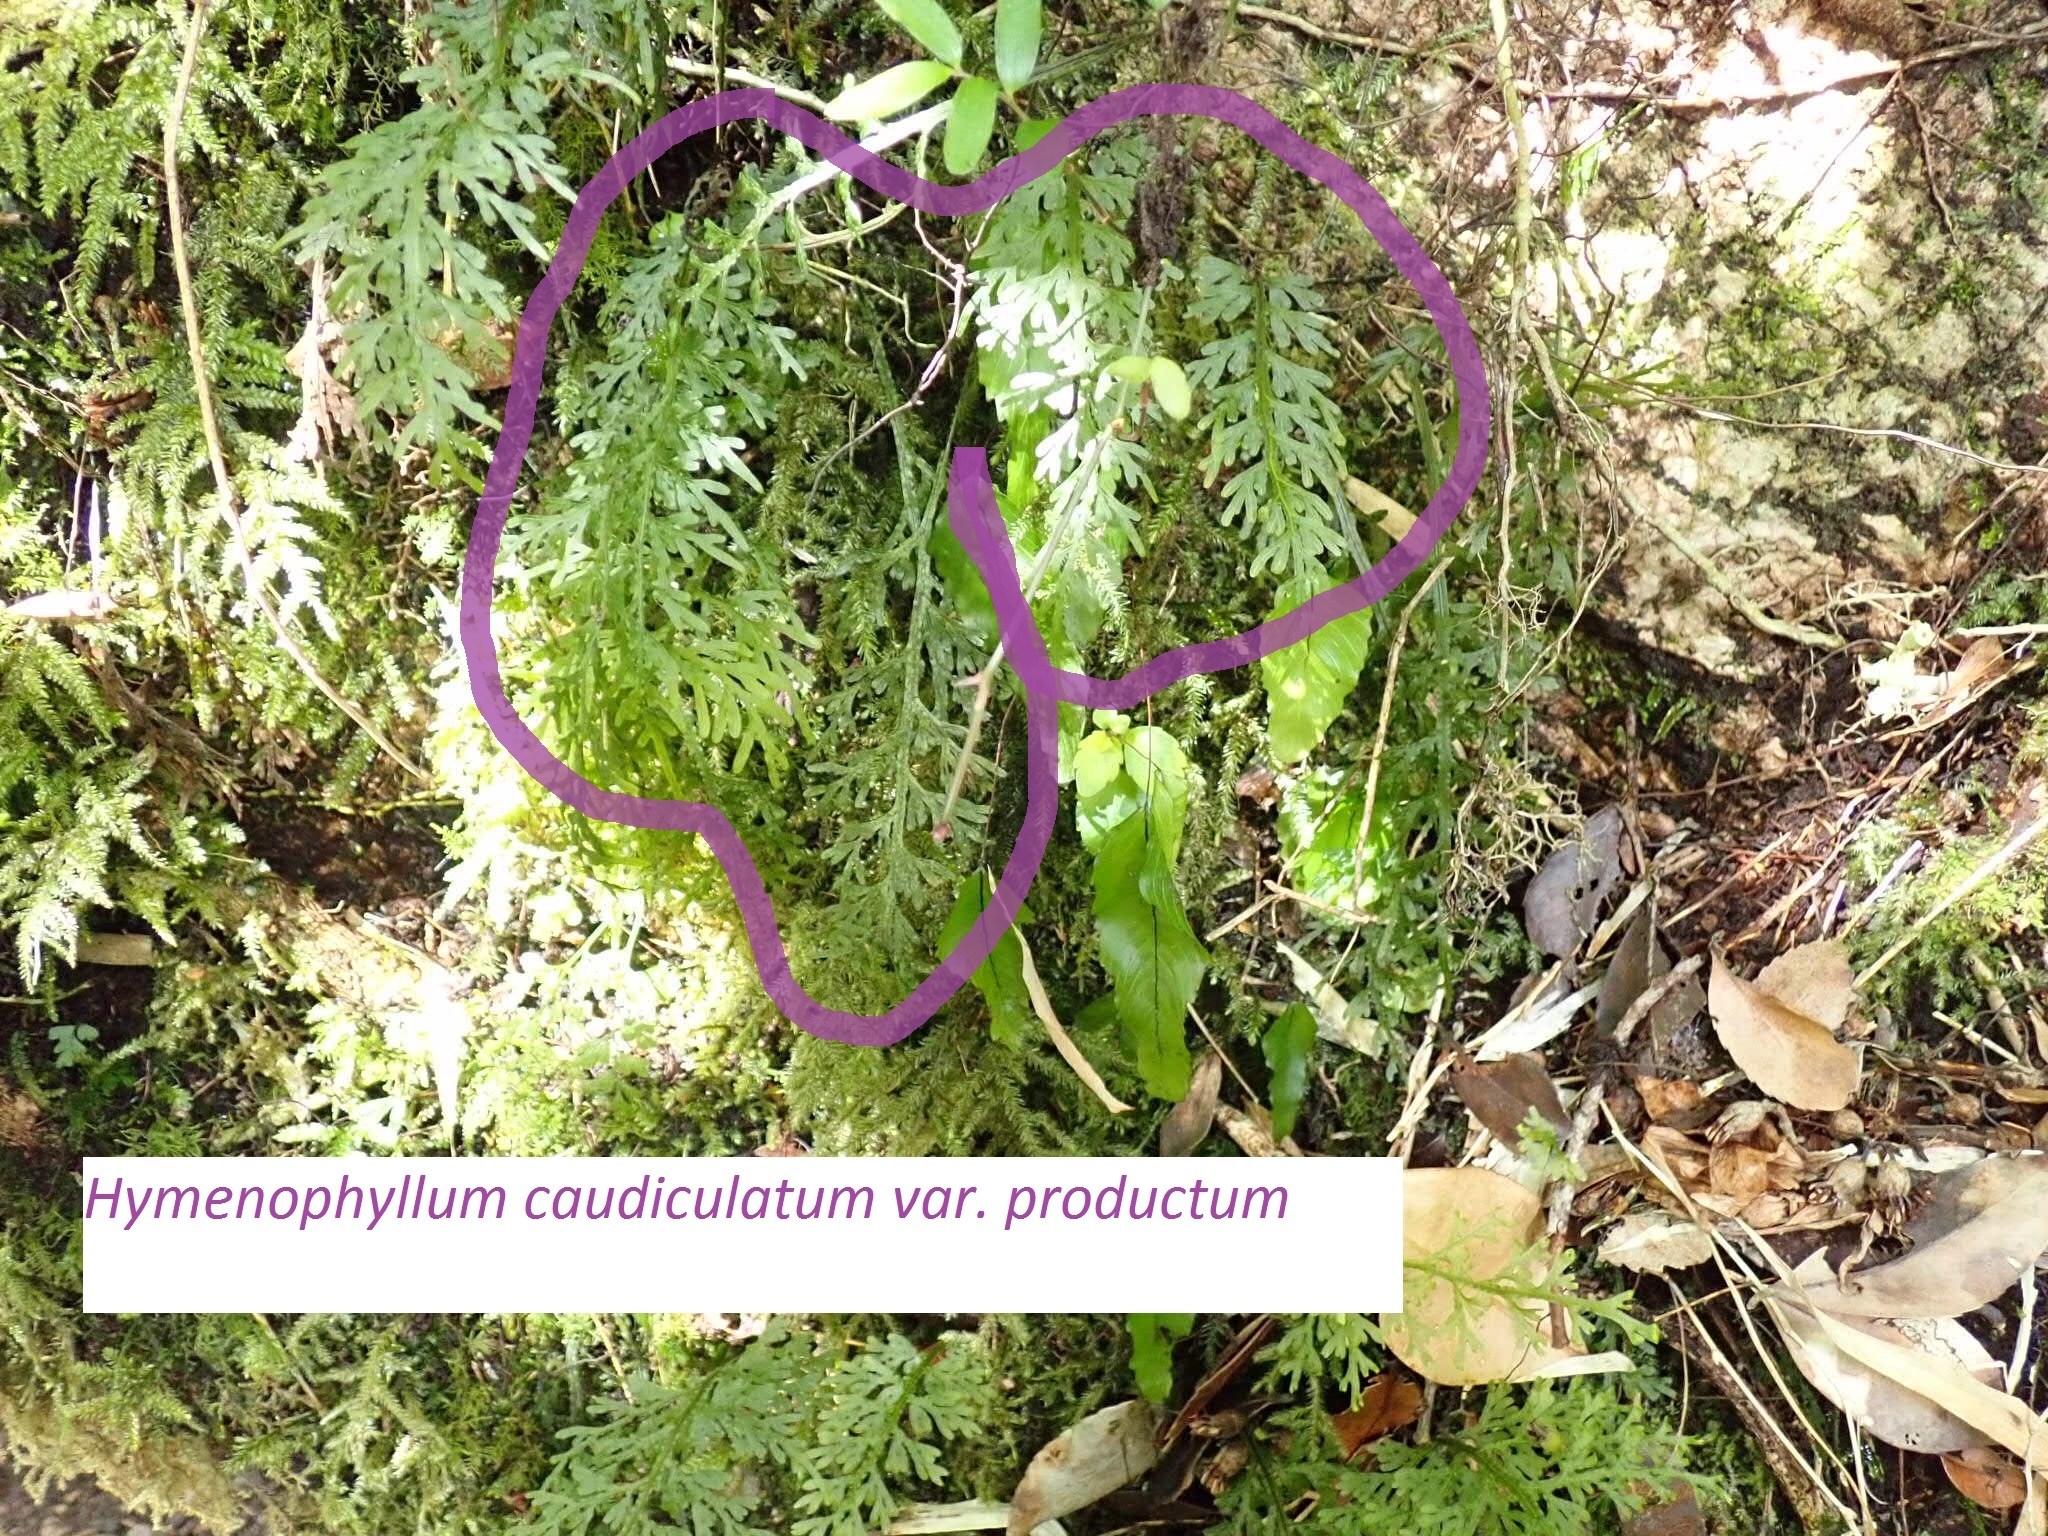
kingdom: Plantae
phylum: Tracheophyta
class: Polypodiopsida
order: Hymenophyllales
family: Hymenophyllaceae
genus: Hymenophyllum
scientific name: Hymenophyllum caudiculatum
